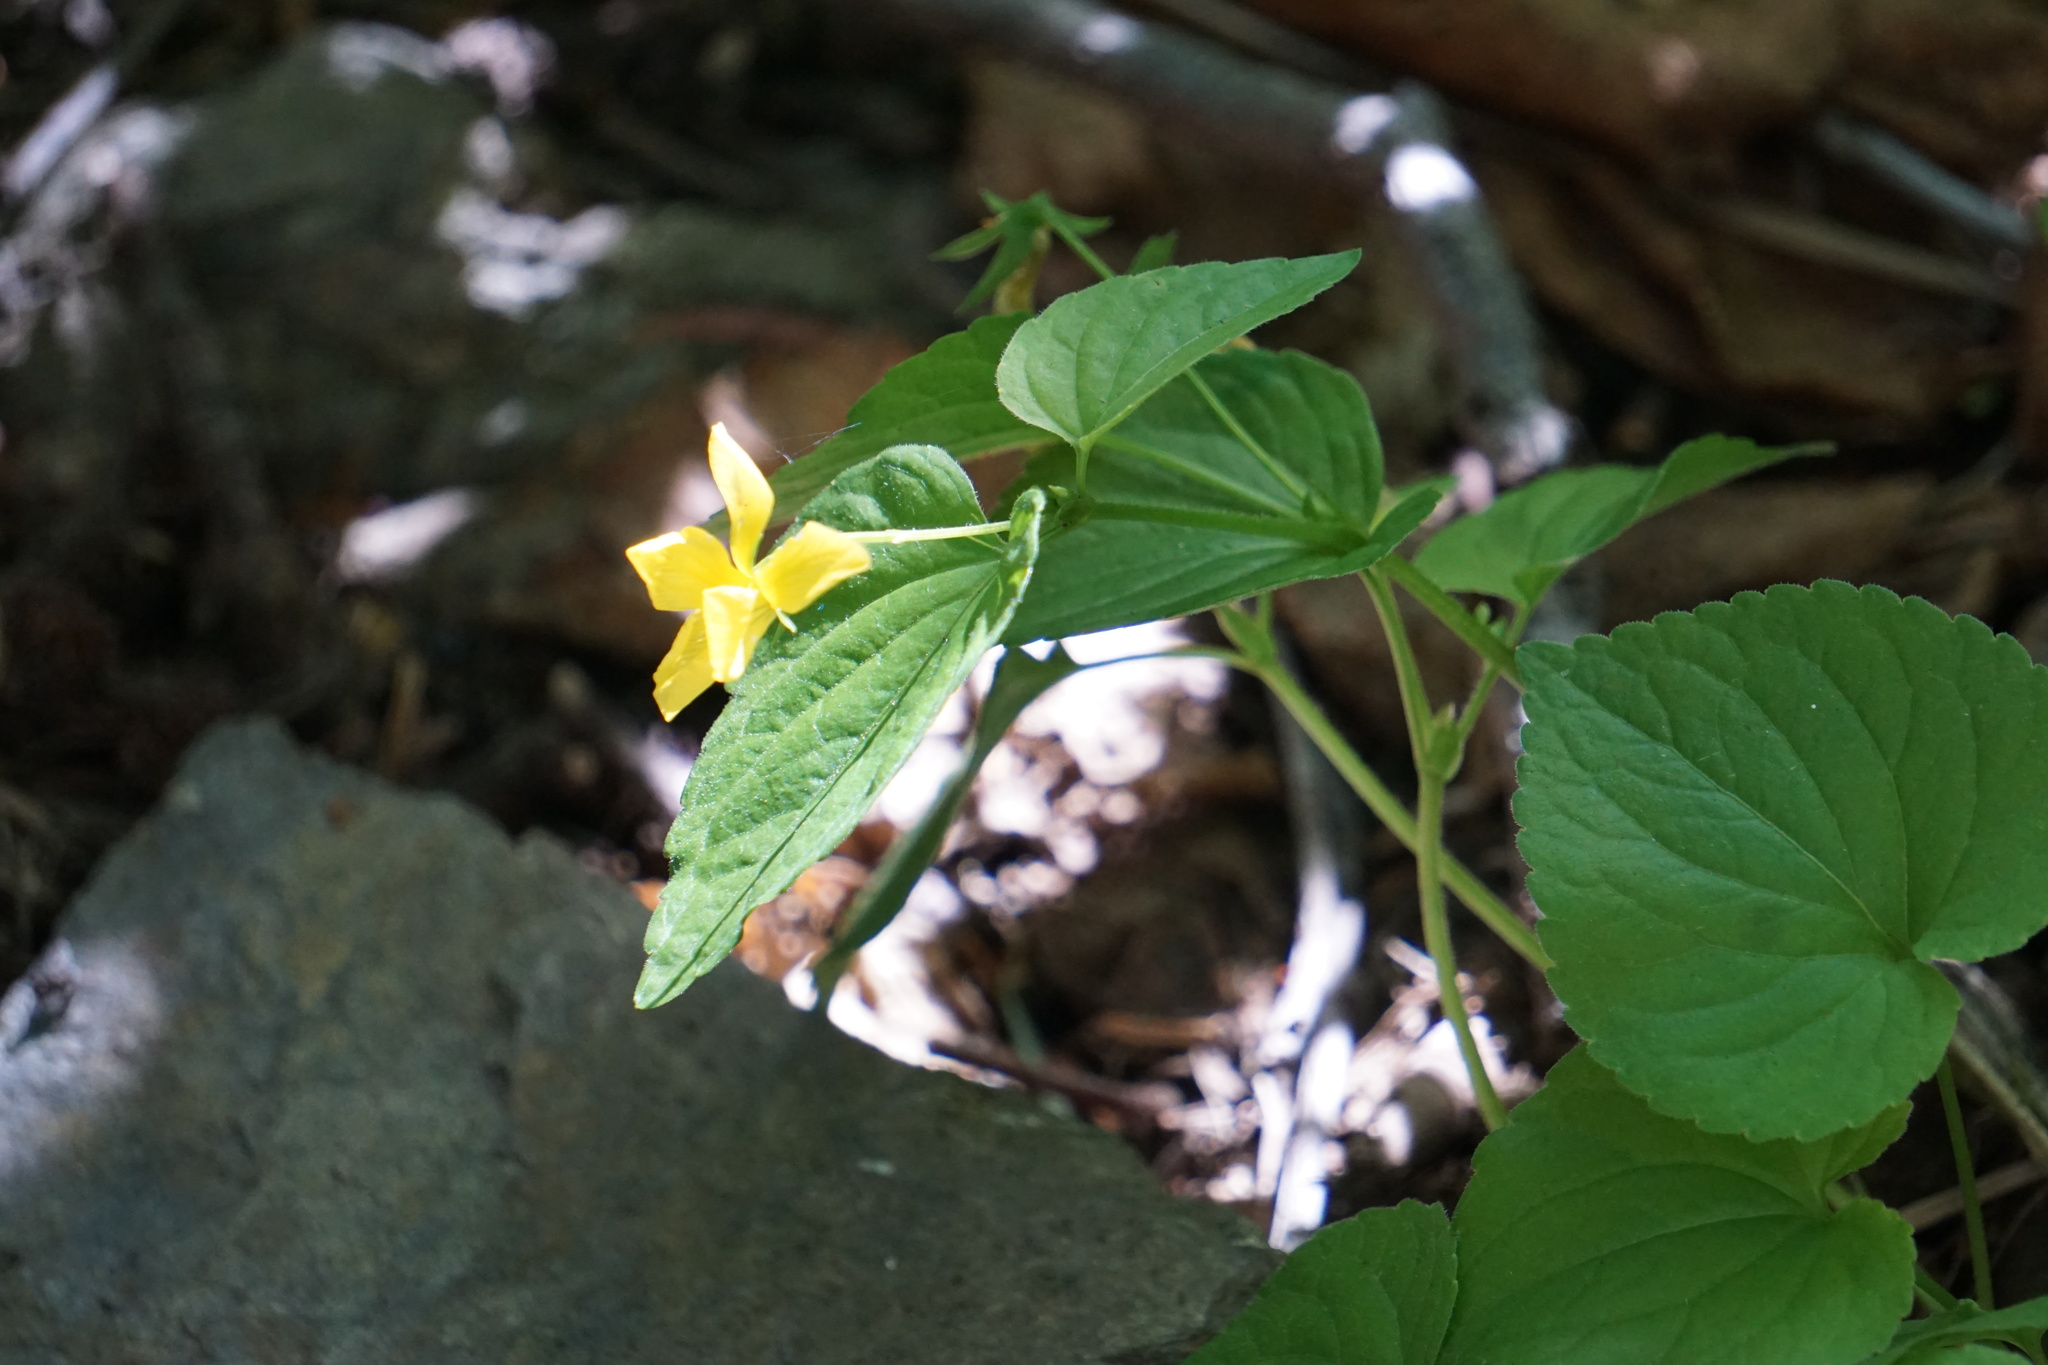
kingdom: Plantae
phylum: Tracheophyta
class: Magnoliopsida
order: Malpighiales
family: Violaceae
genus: Viola
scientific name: Viola glabella
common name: Stream violet
